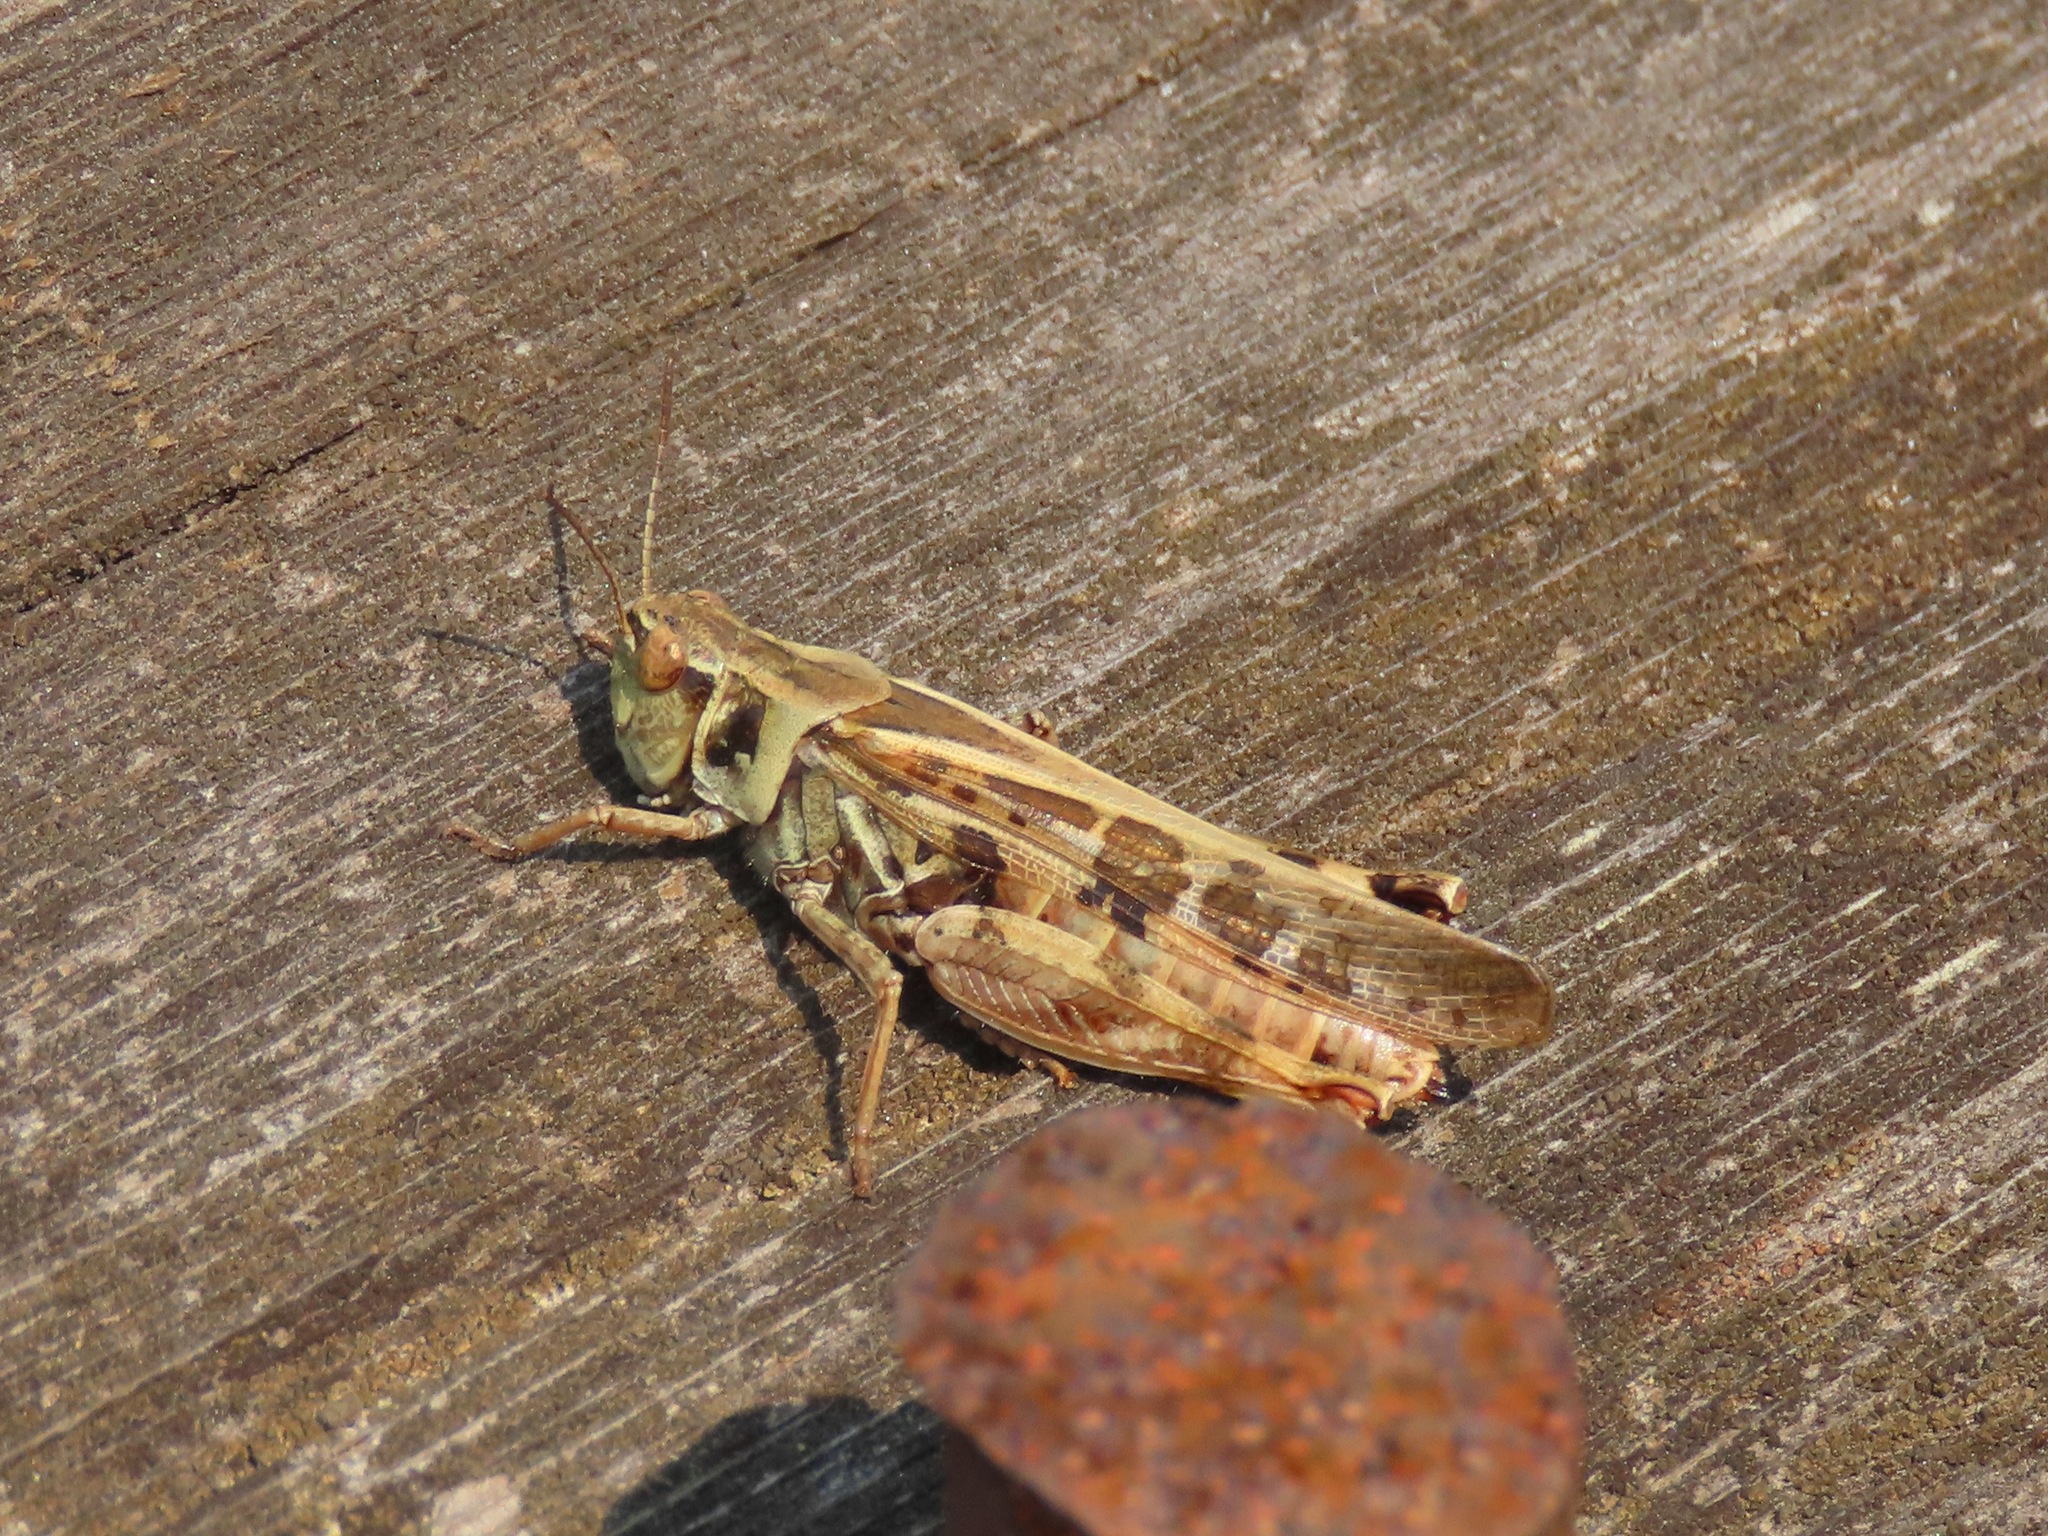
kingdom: Animalia
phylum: Arthropoda
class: Insecta
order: Orthoptera
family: Acrididae
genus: Camnula
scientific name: Camnula pellucida
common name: Clear-winged grasshopper
